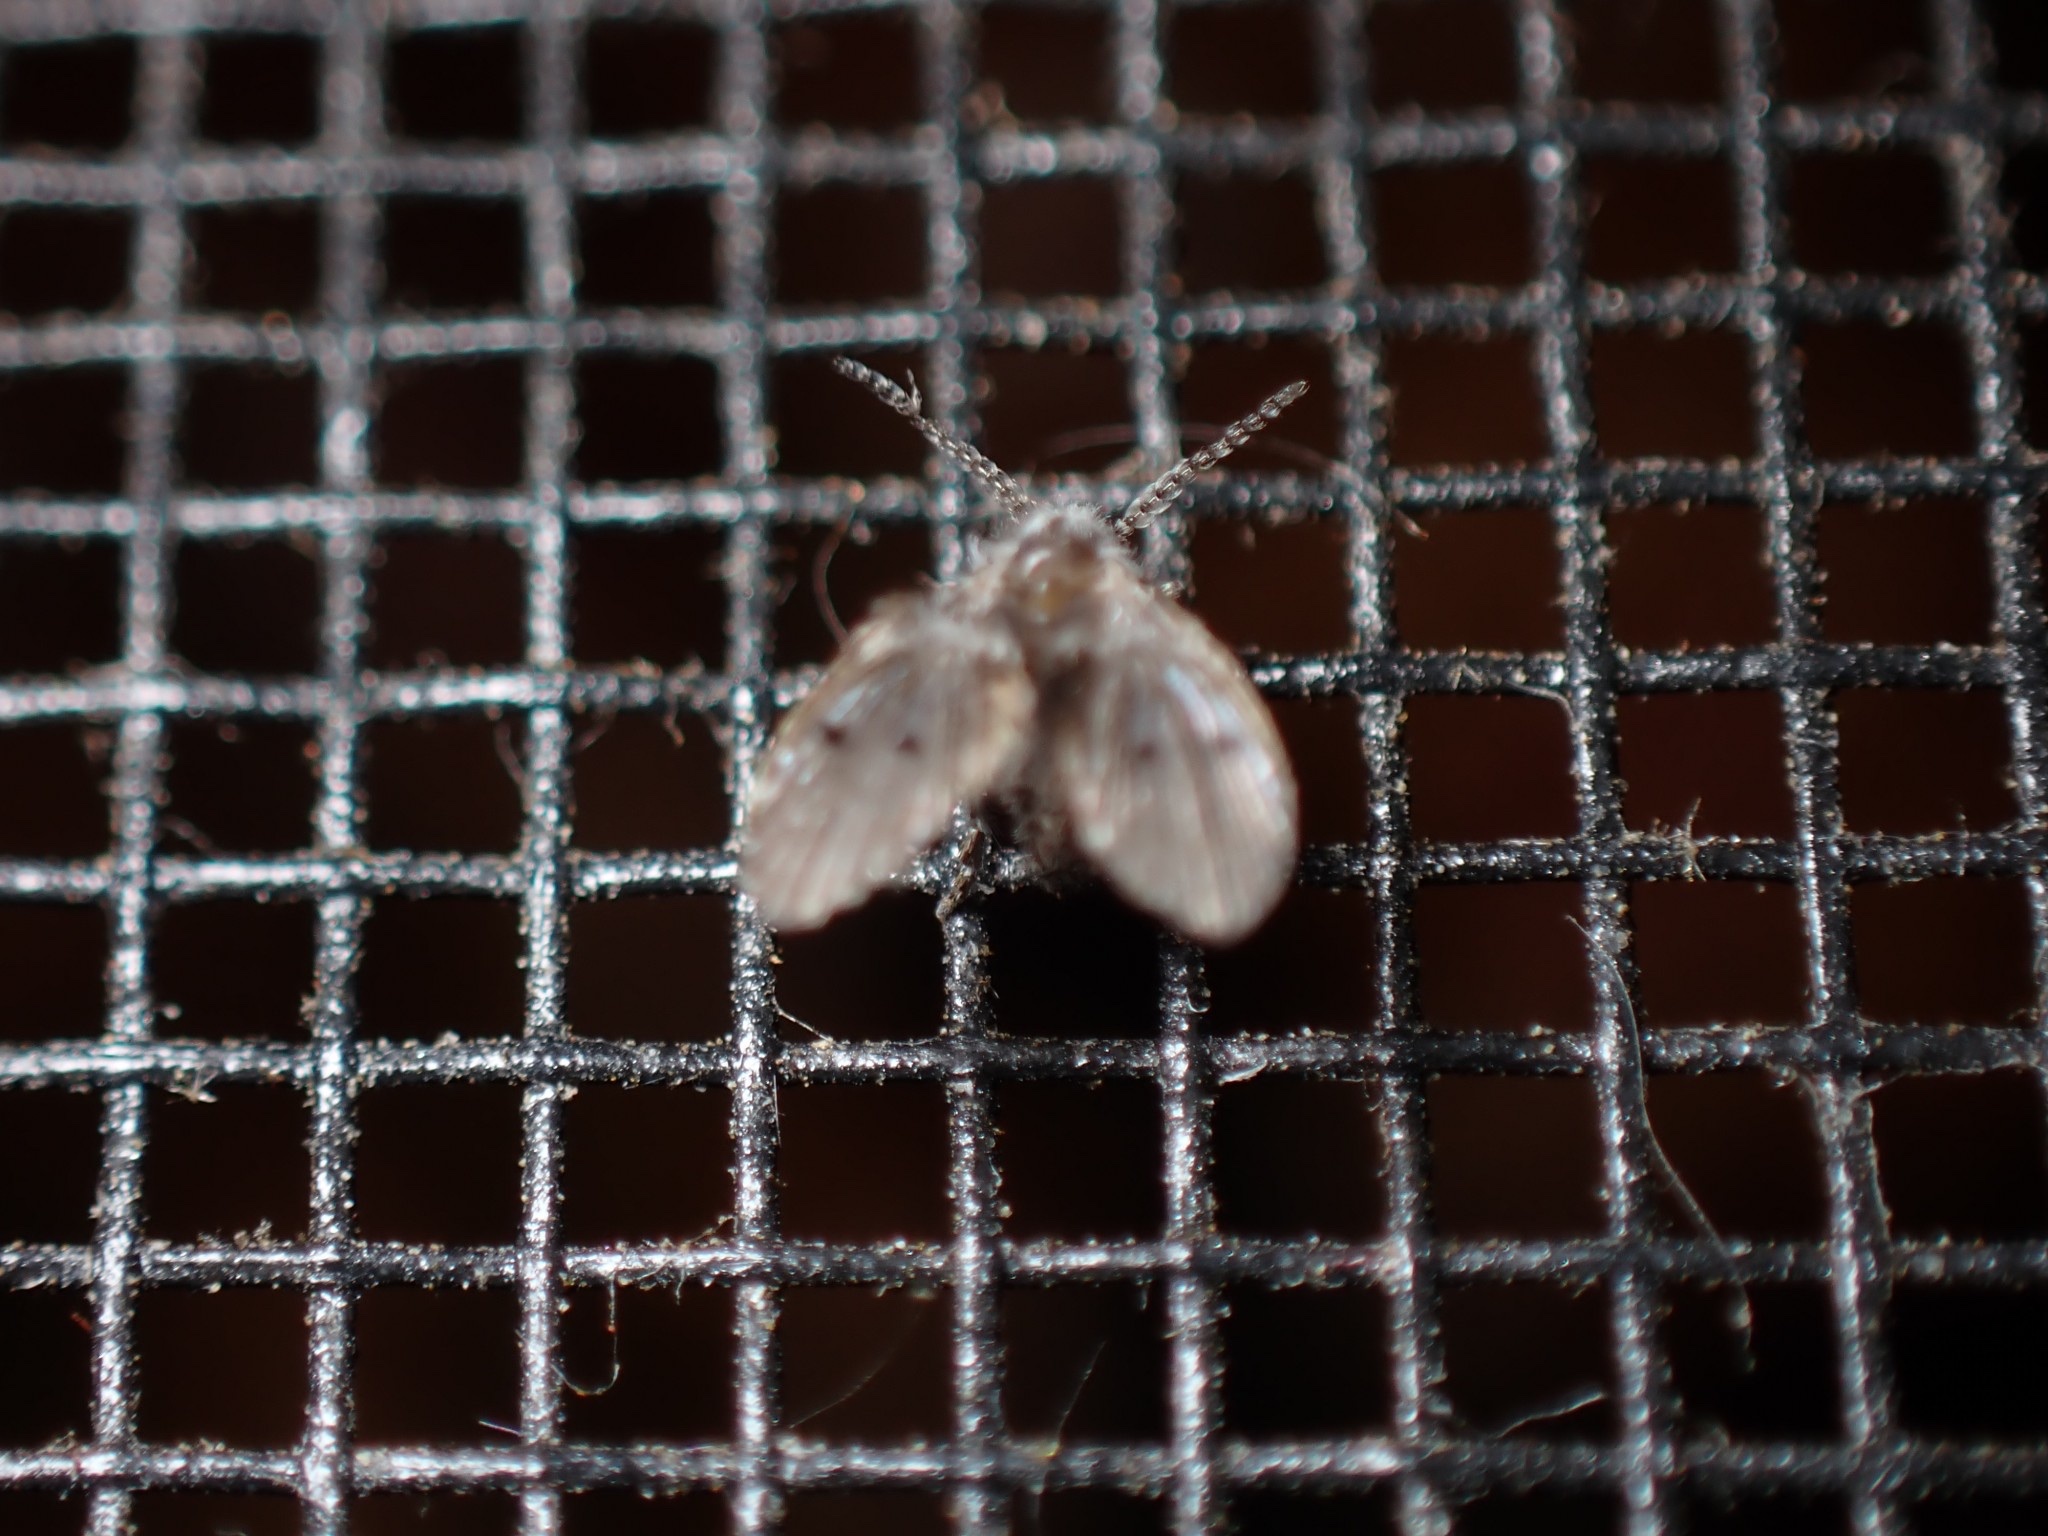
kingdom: Animalia
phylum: Arthropoda
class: Insecta
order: Diptera
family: Psychodidae
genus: Clogmia
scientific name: Clogmia albipunctatus
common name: White-spotted moth fly
